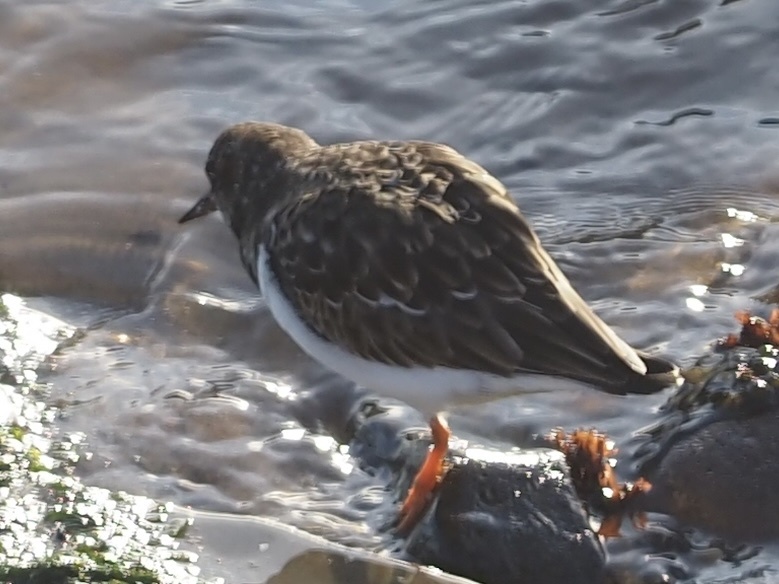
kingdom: Animalia
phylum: Chordata
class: Aves
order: Charadriiformes
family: Scolopacidae
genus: Arenaria
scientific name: Arenaria interpres
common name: Ruddy turnstone
